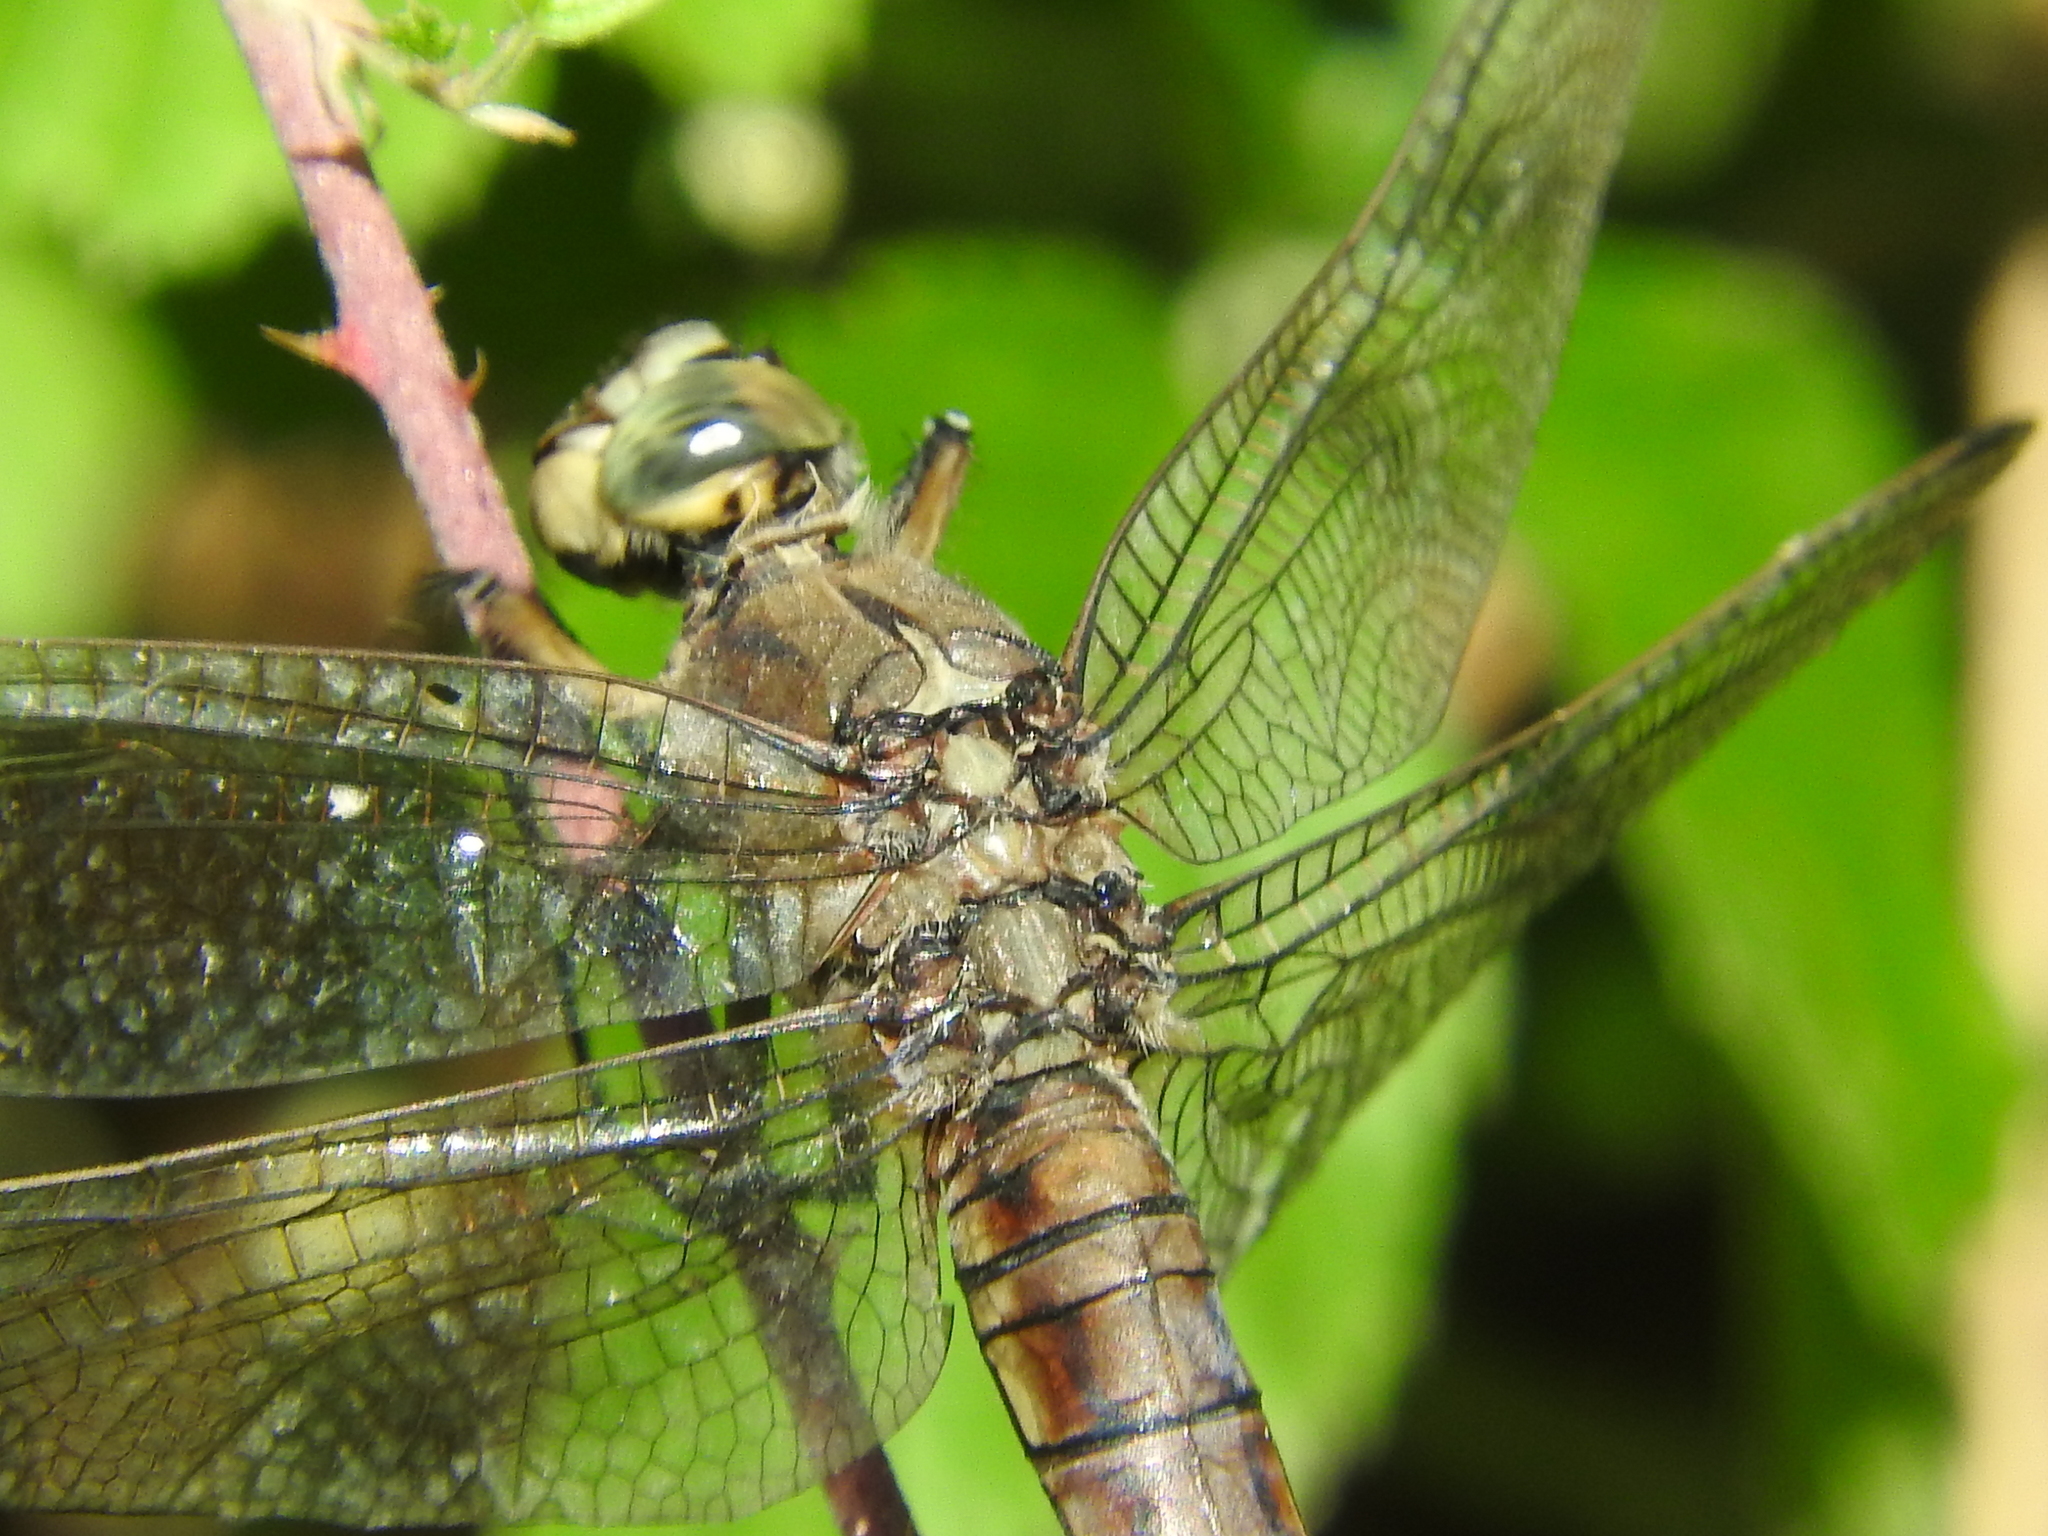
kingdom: Animalia
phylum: Arthropoda
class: Insecta
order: Odonata
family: Libellulidae
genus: Orthetrum
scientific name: Orthetrum cancellatum
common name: Black-tailed skimmer
